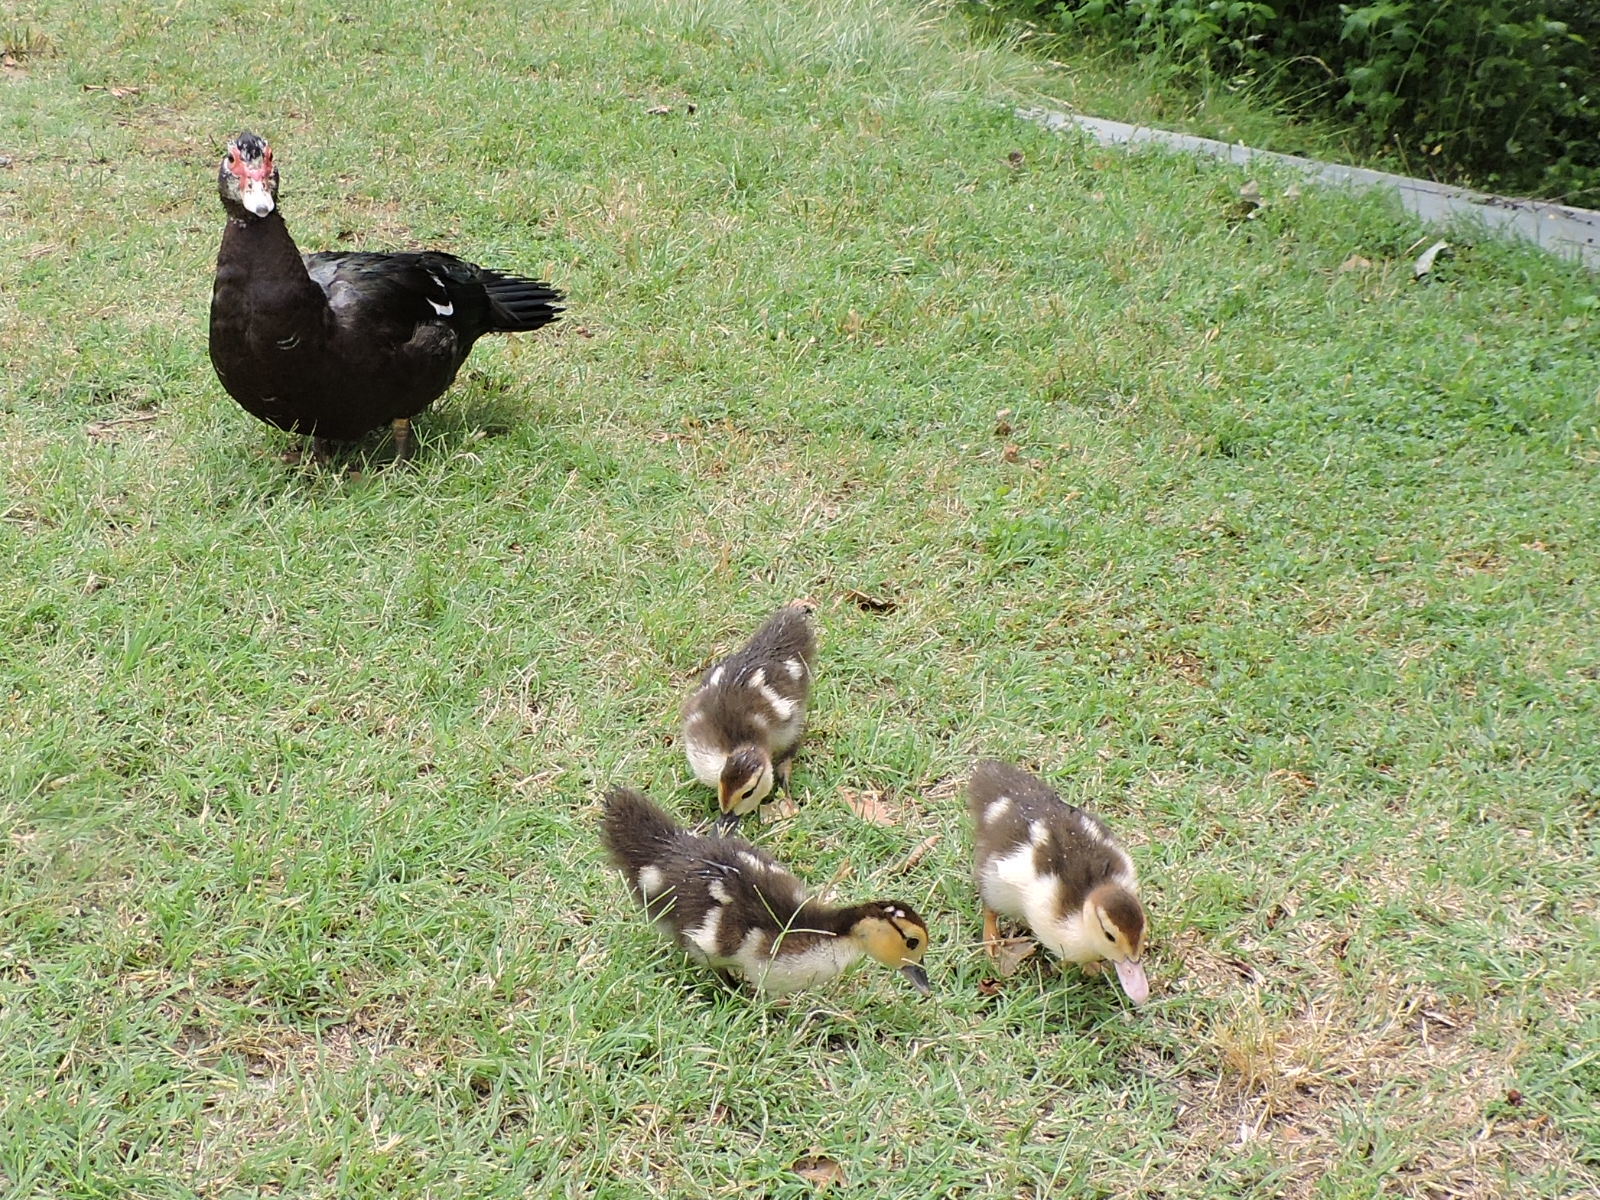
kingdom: Animalia
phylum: Chordata
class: Aves
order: Anseriformes
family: Anatidae
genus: Cairina
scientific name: Cairina moschata
